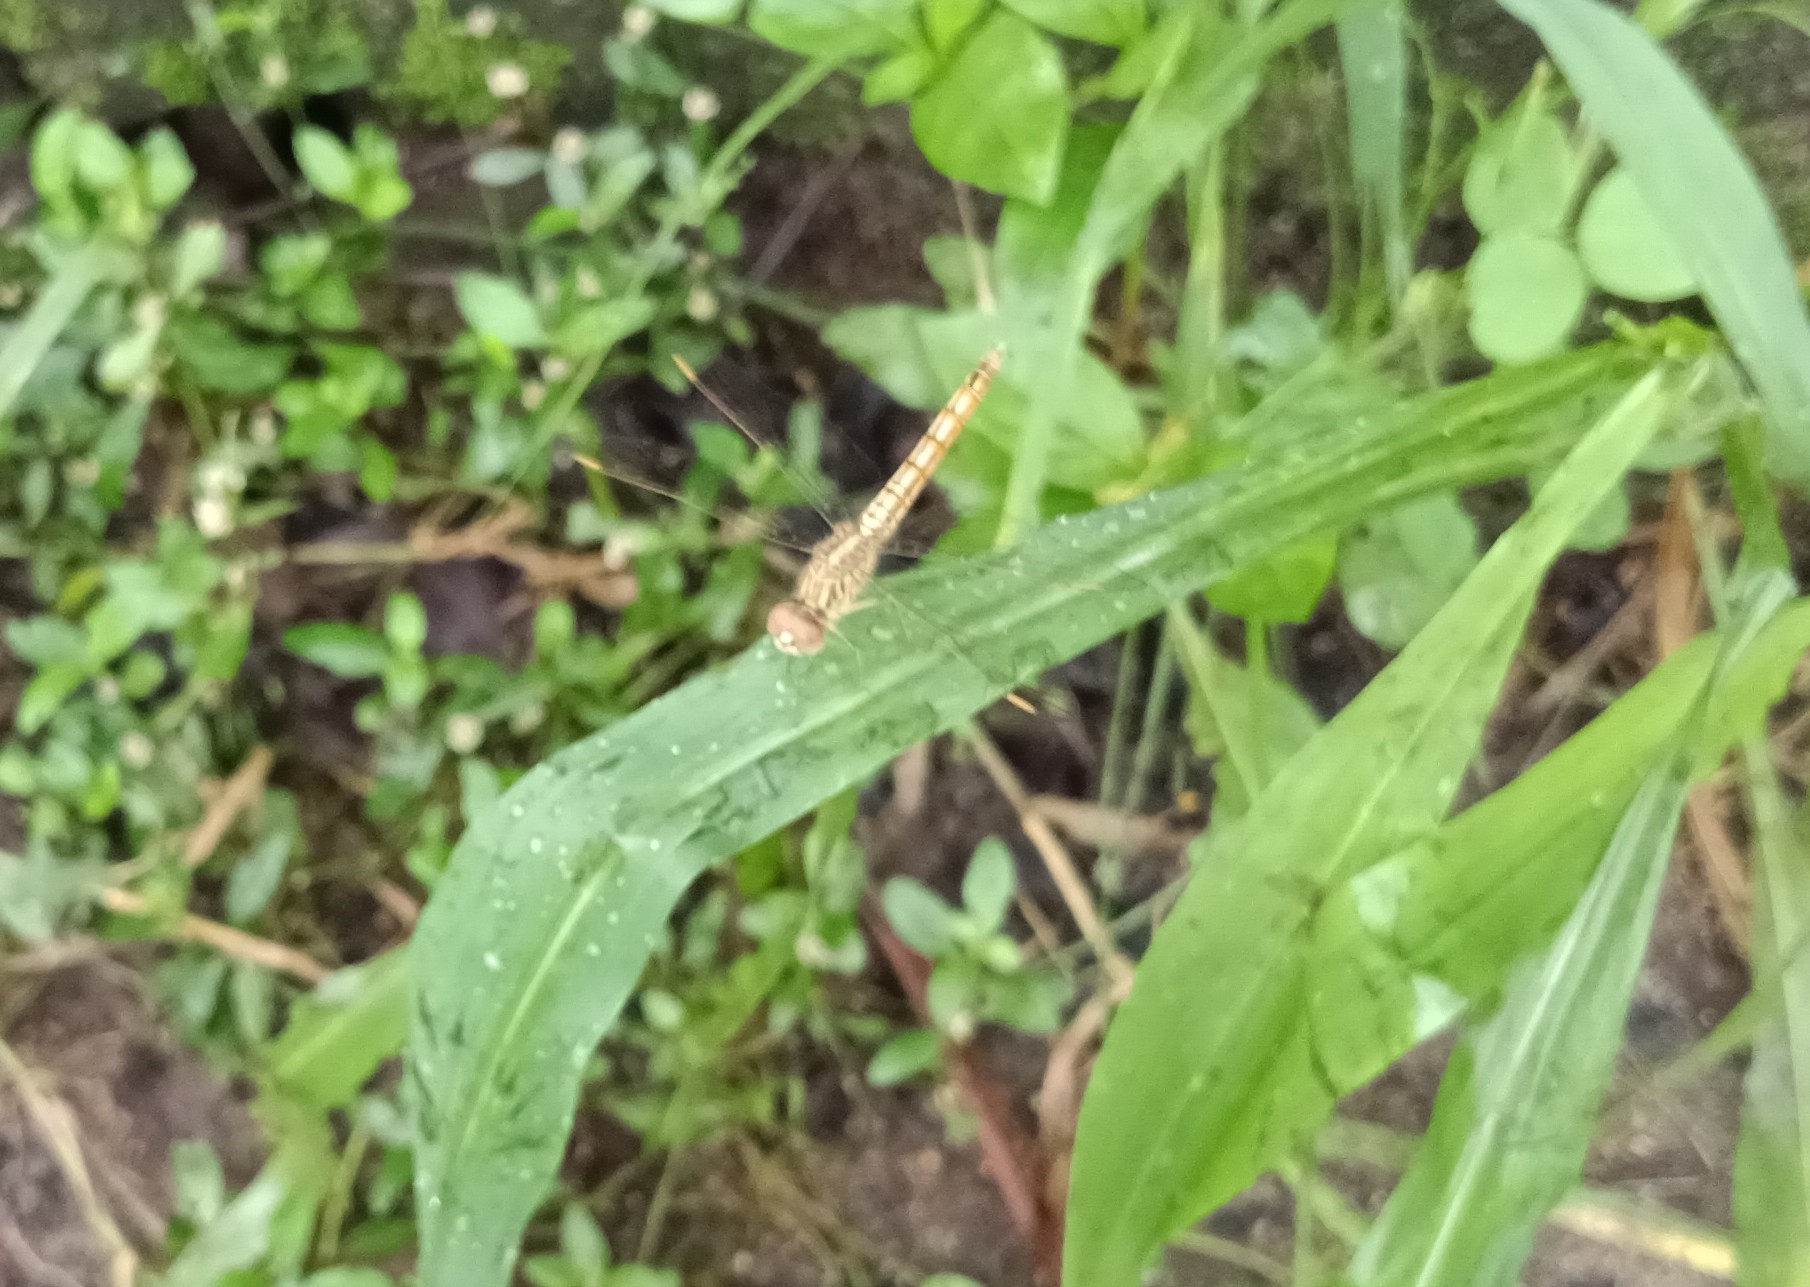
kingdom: Animalia
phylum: Arthropoda
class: Insecta
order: Odonata
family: Libellulidae
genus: Brachythemis
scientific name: Brachythemis contaminata
